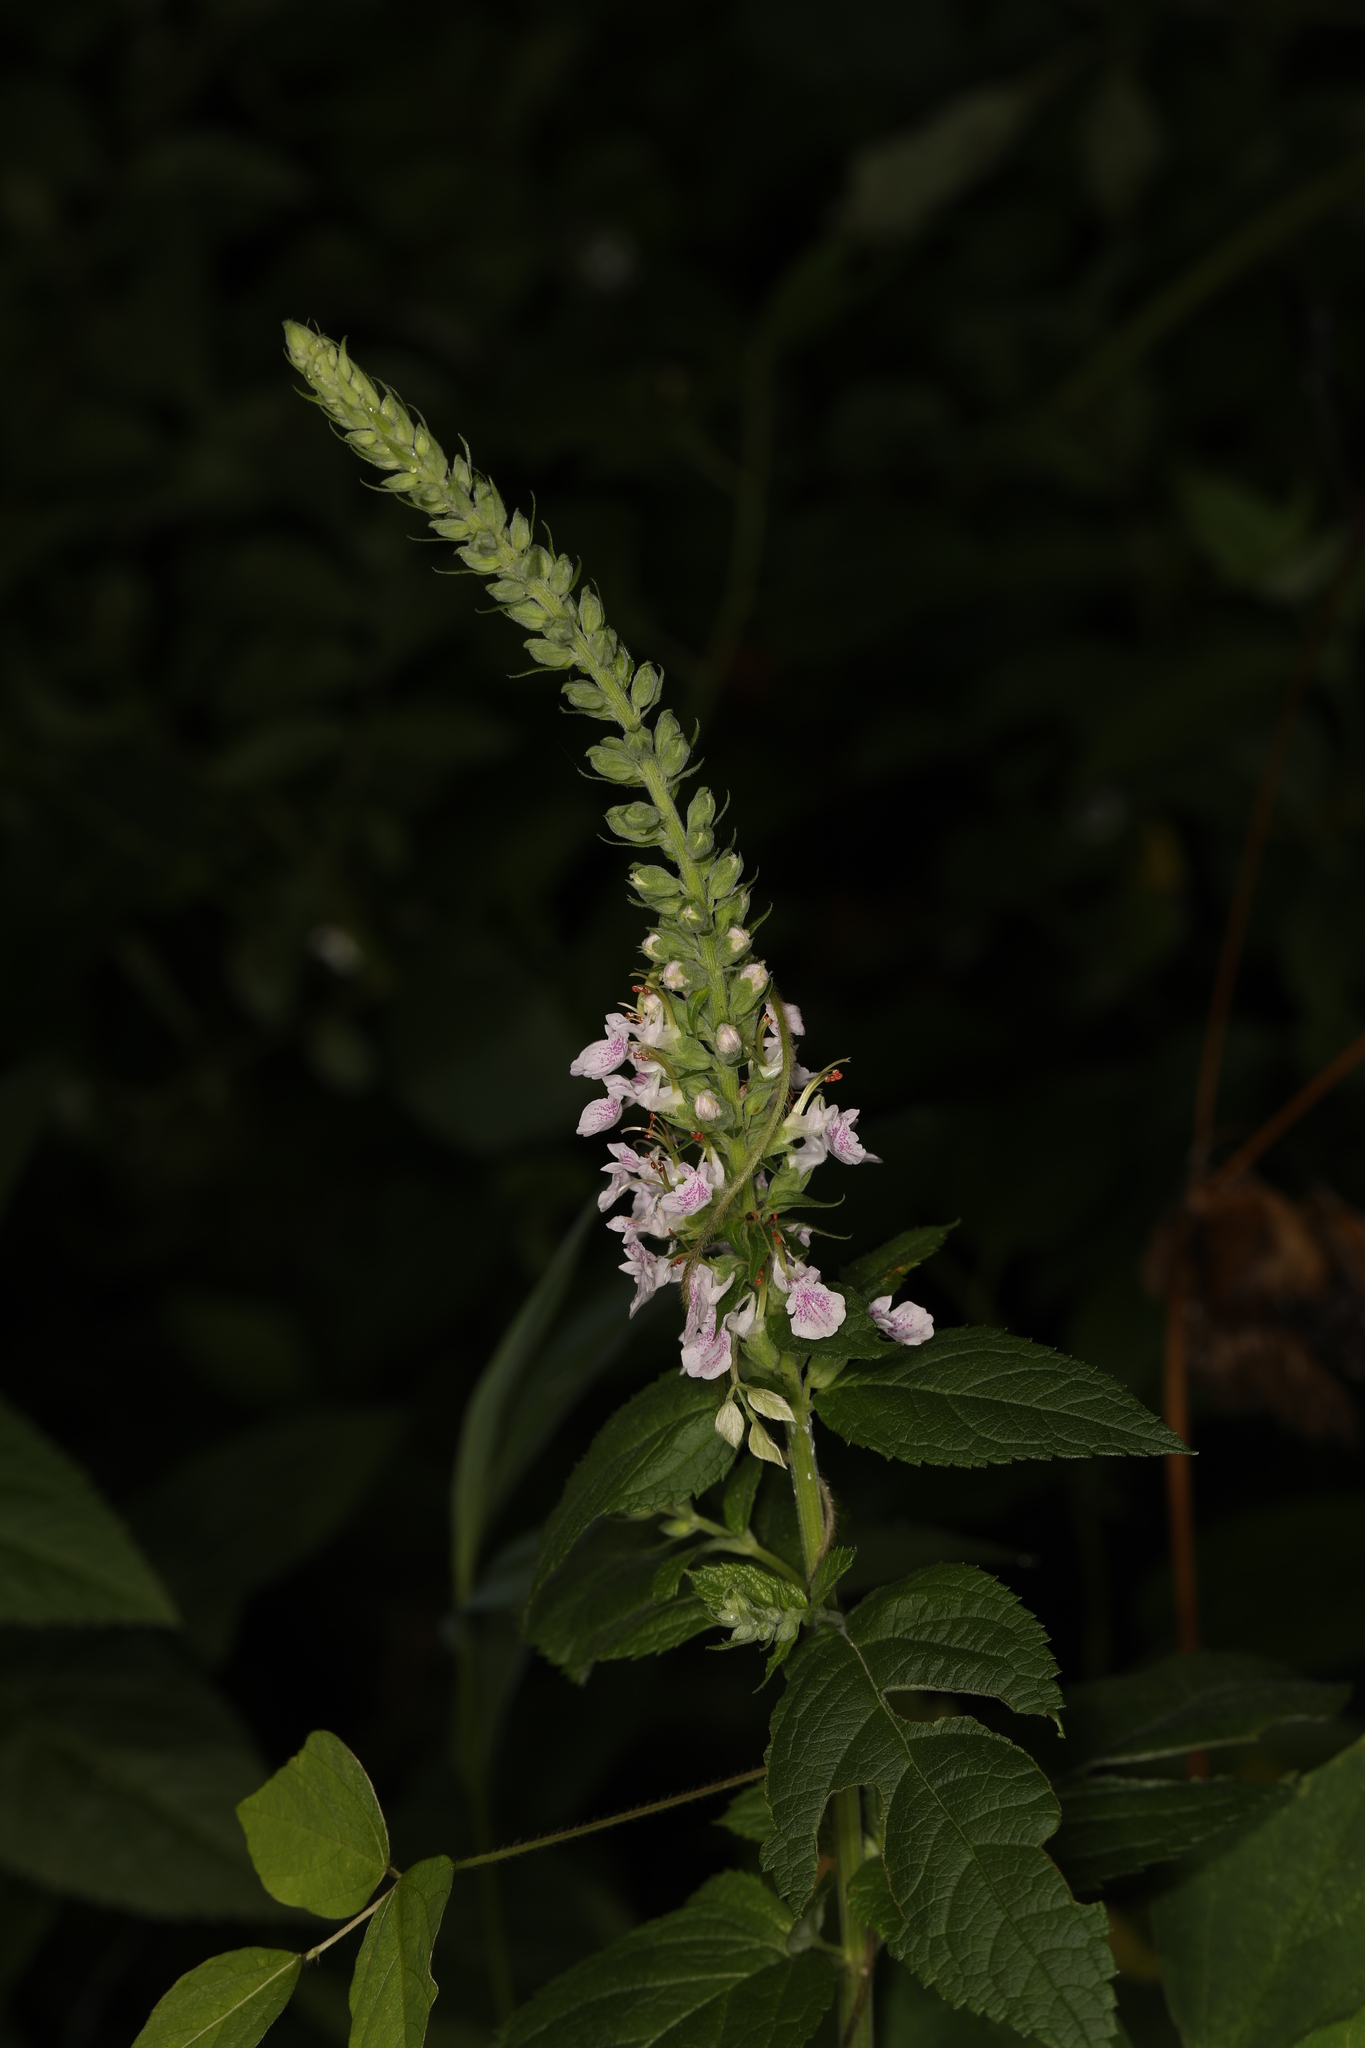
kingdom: Plantae
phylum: Tracheophyta
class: Magnoliopsida
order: Lamiales
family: Lamiaceae
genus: Teucrium
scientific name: Teucrium canadense
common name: American germander
